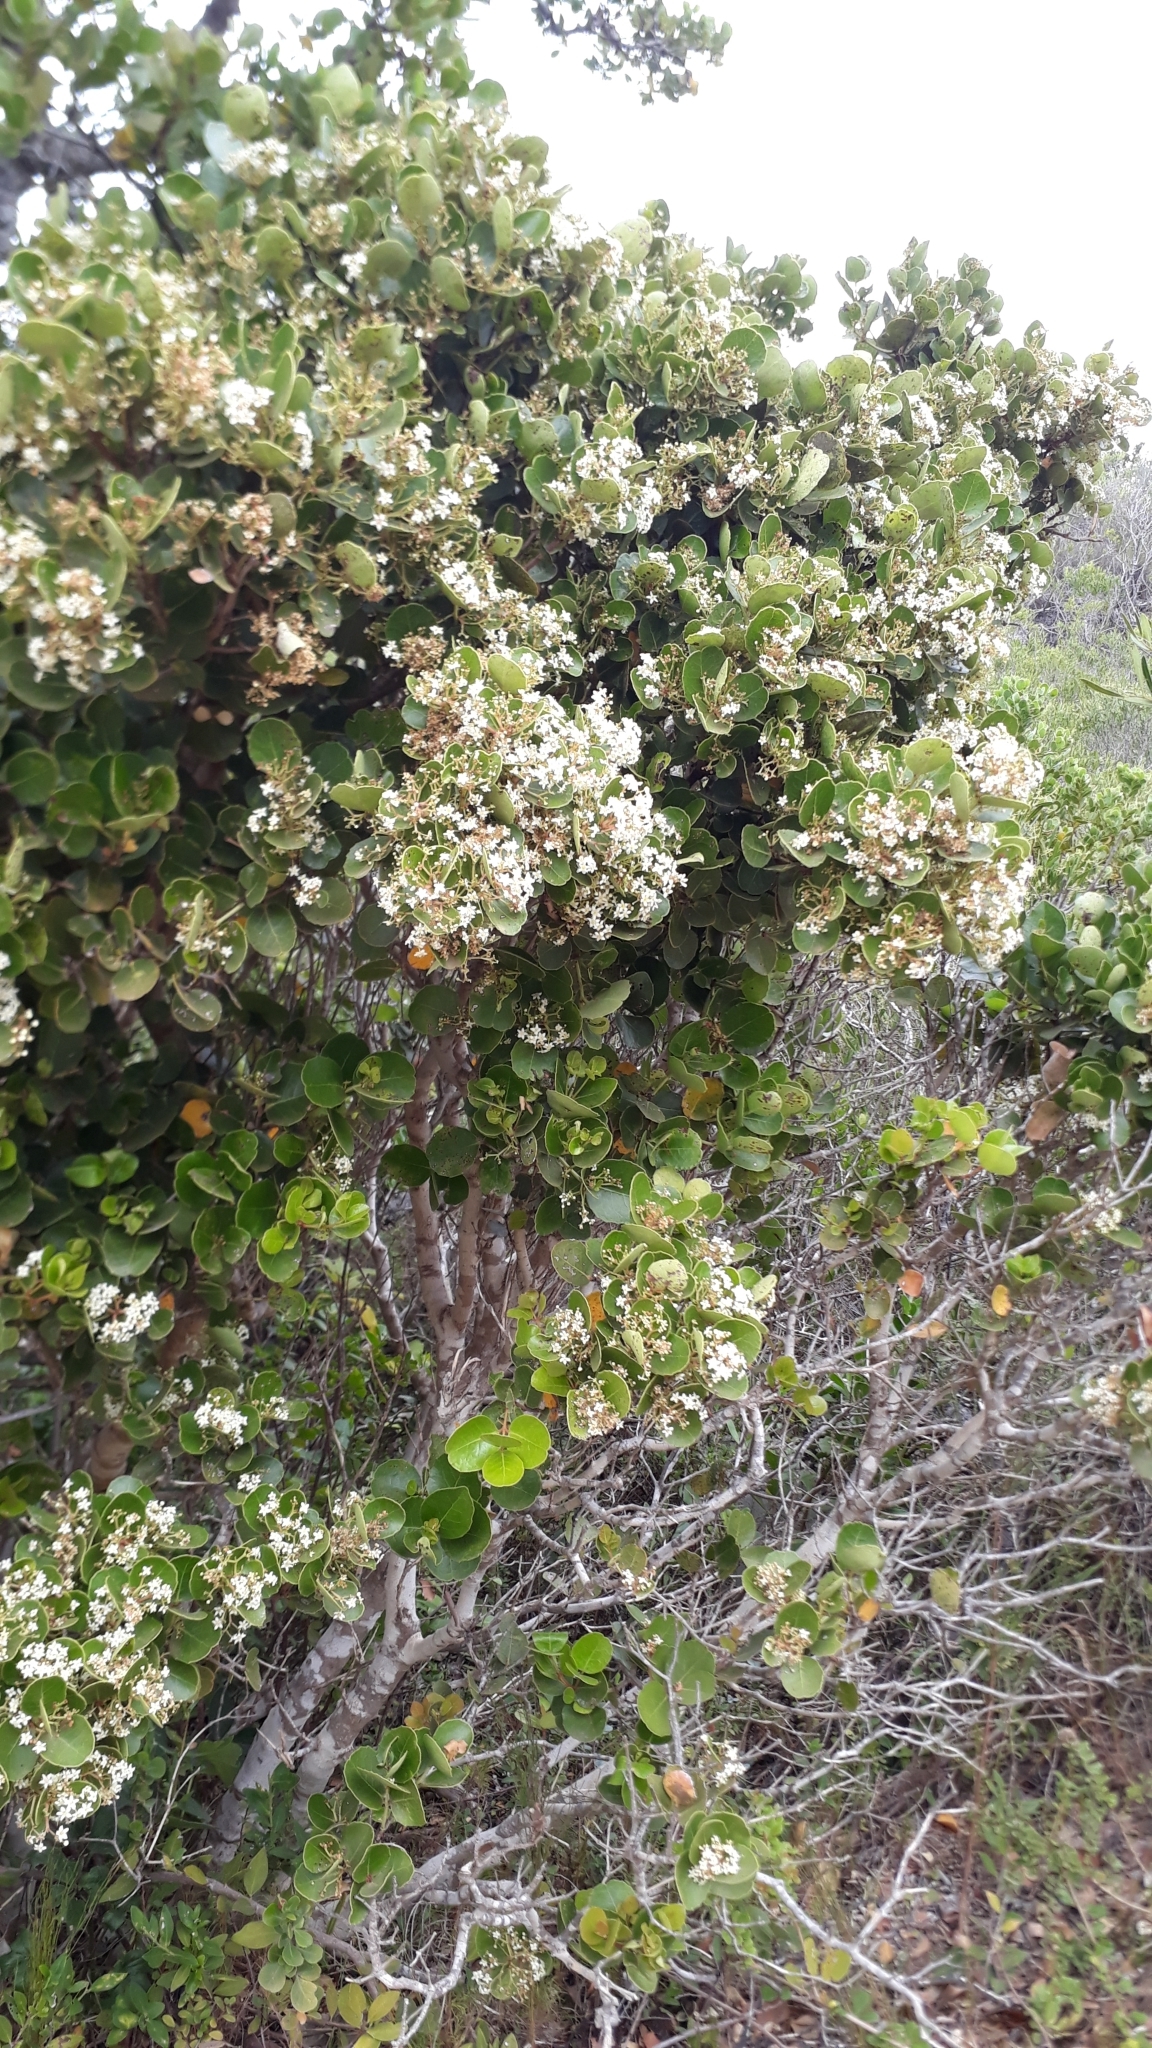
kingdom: Plantae
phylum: Tracheophyta
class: Magnoliopsida
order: Celastrales
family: Celastraceae
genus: Cassine
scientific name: Cassine peragua
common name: Cape saffron
